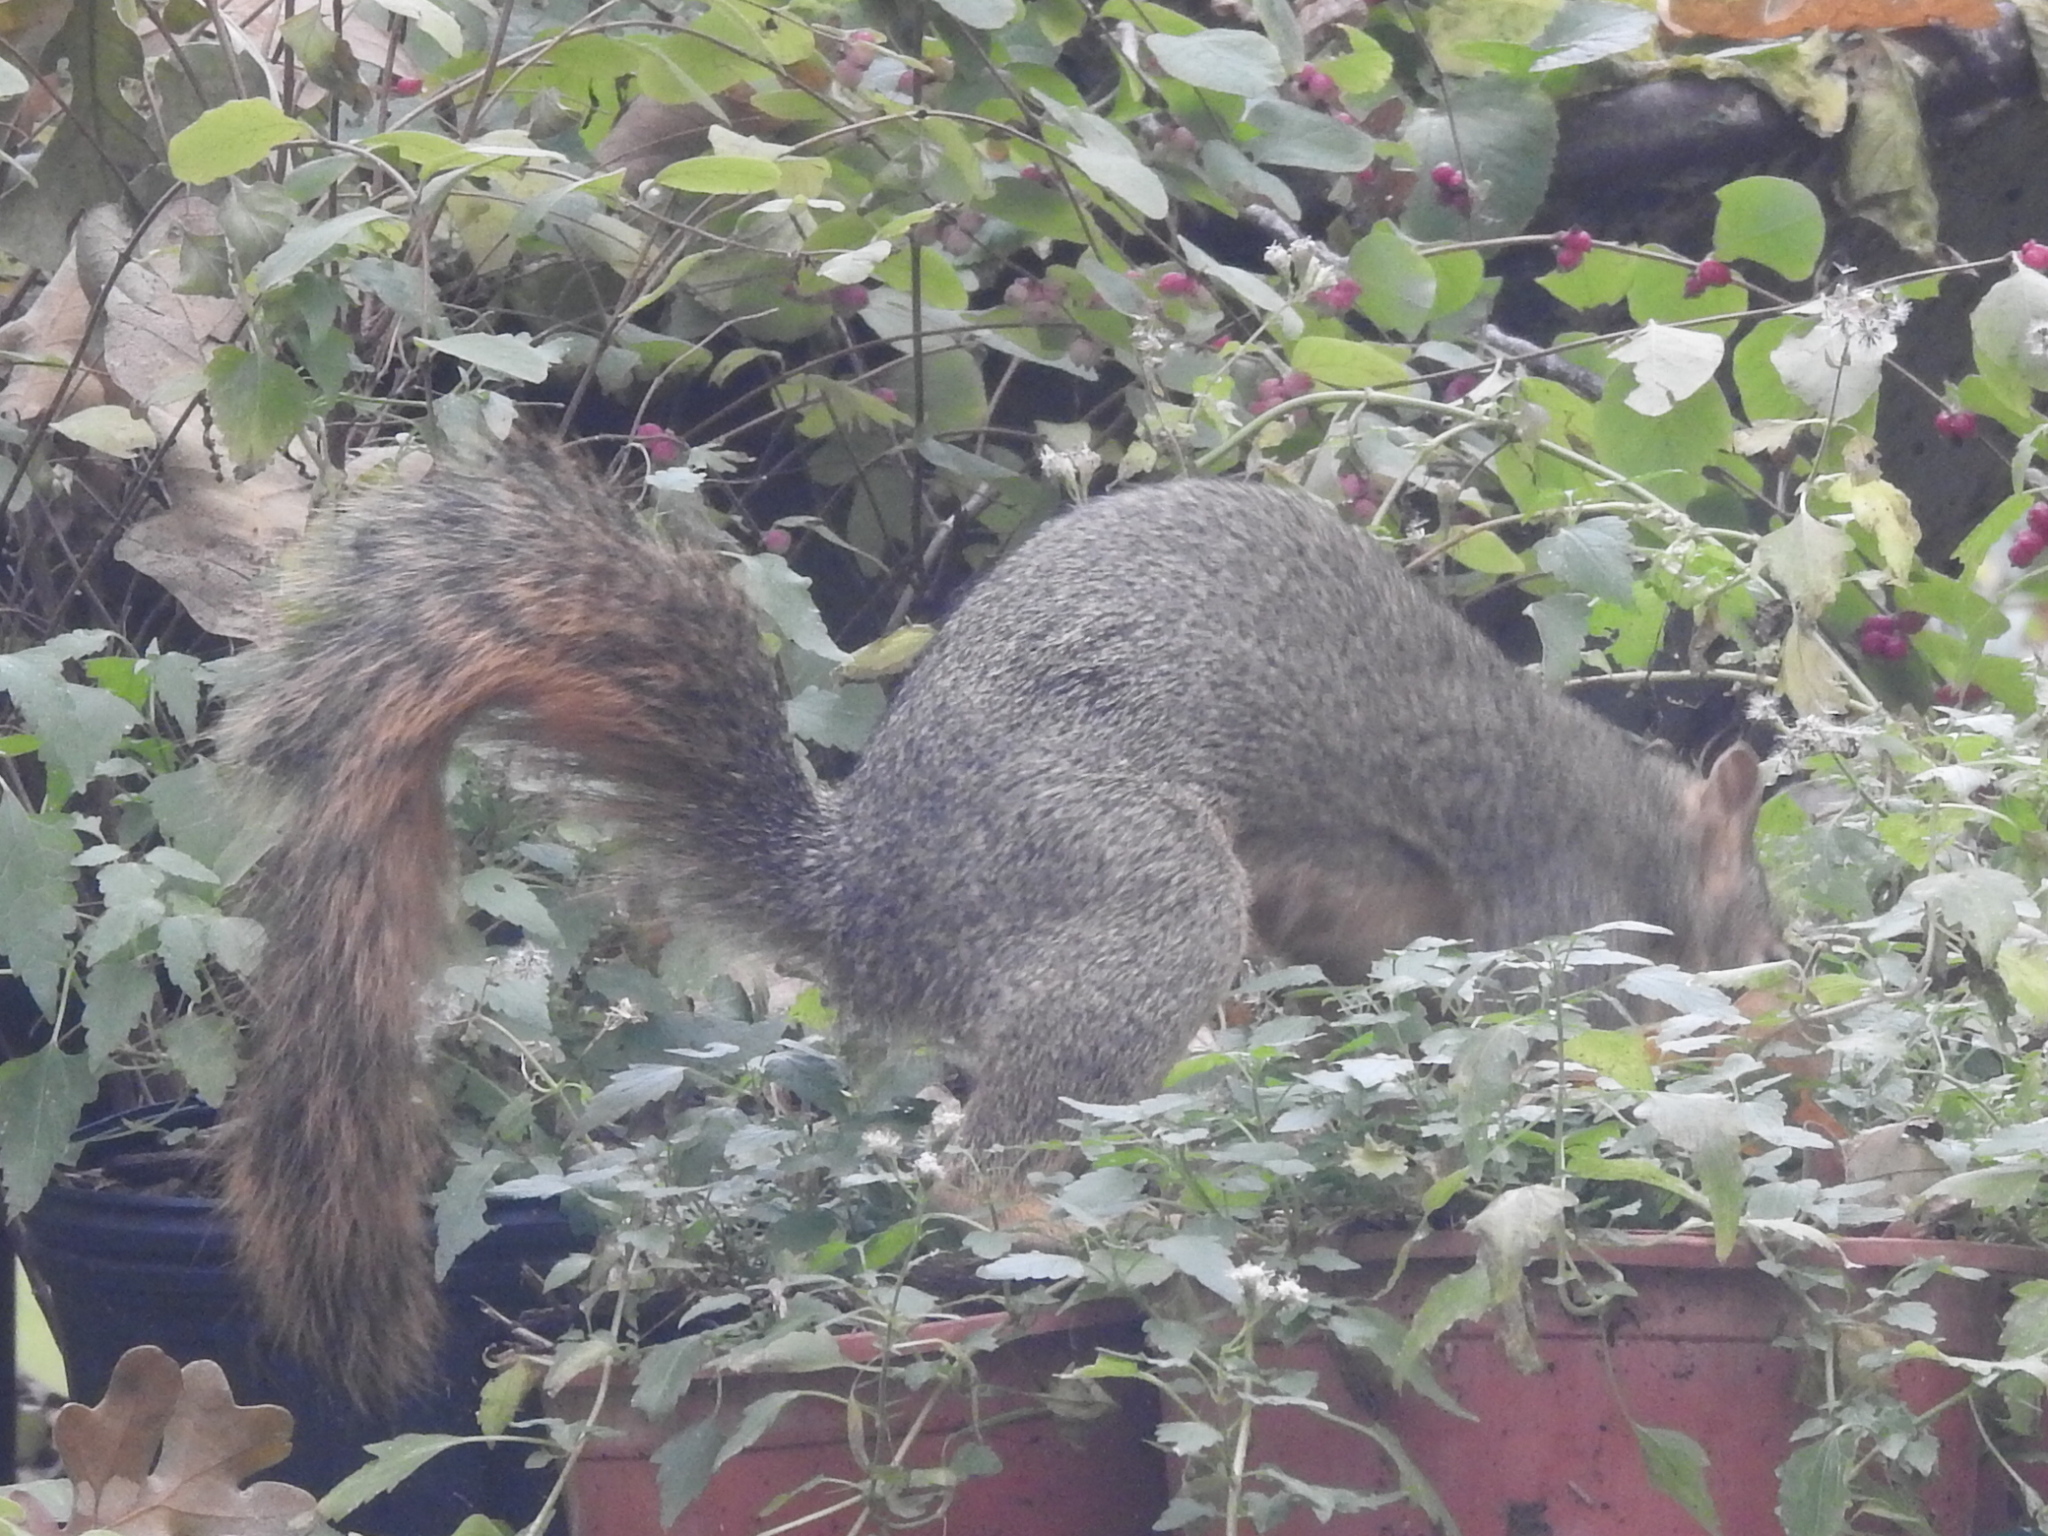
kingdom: Animalia
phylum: Chordata
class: Mammalia
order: Rodentia
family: Sciuridae
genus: Sciurus
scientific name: Sciurus niger
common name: Fox squirrel
